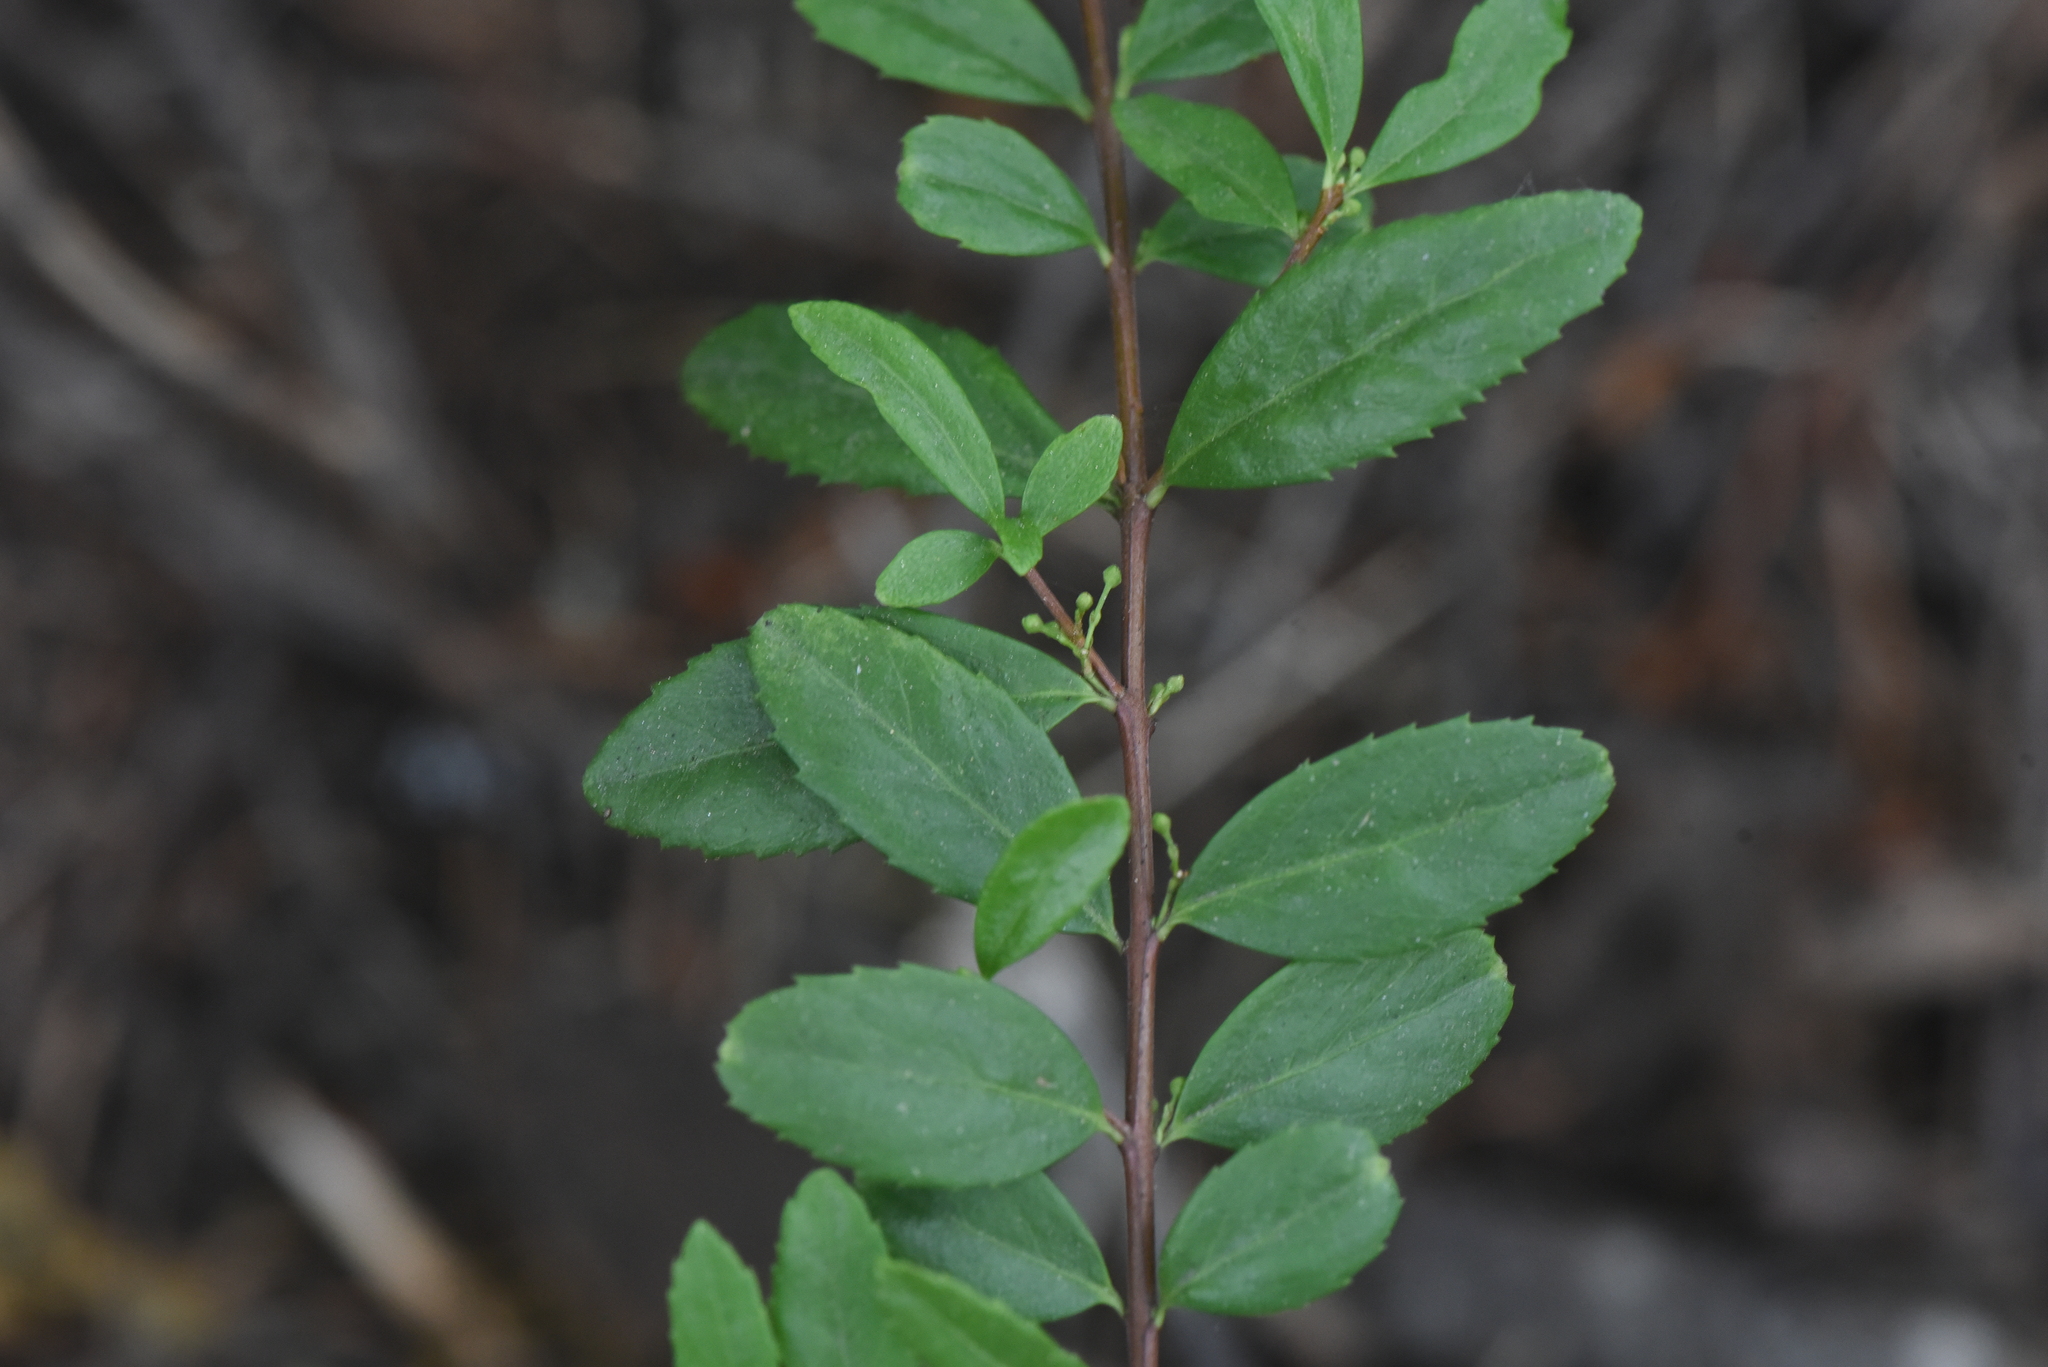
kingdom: Plantae
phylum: Tracheophyta
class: Magnoliopsida
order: Celastrales
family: Celastraceae
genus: Paxistima
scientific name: Paxistima myrsinites
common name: Mountain-lover
